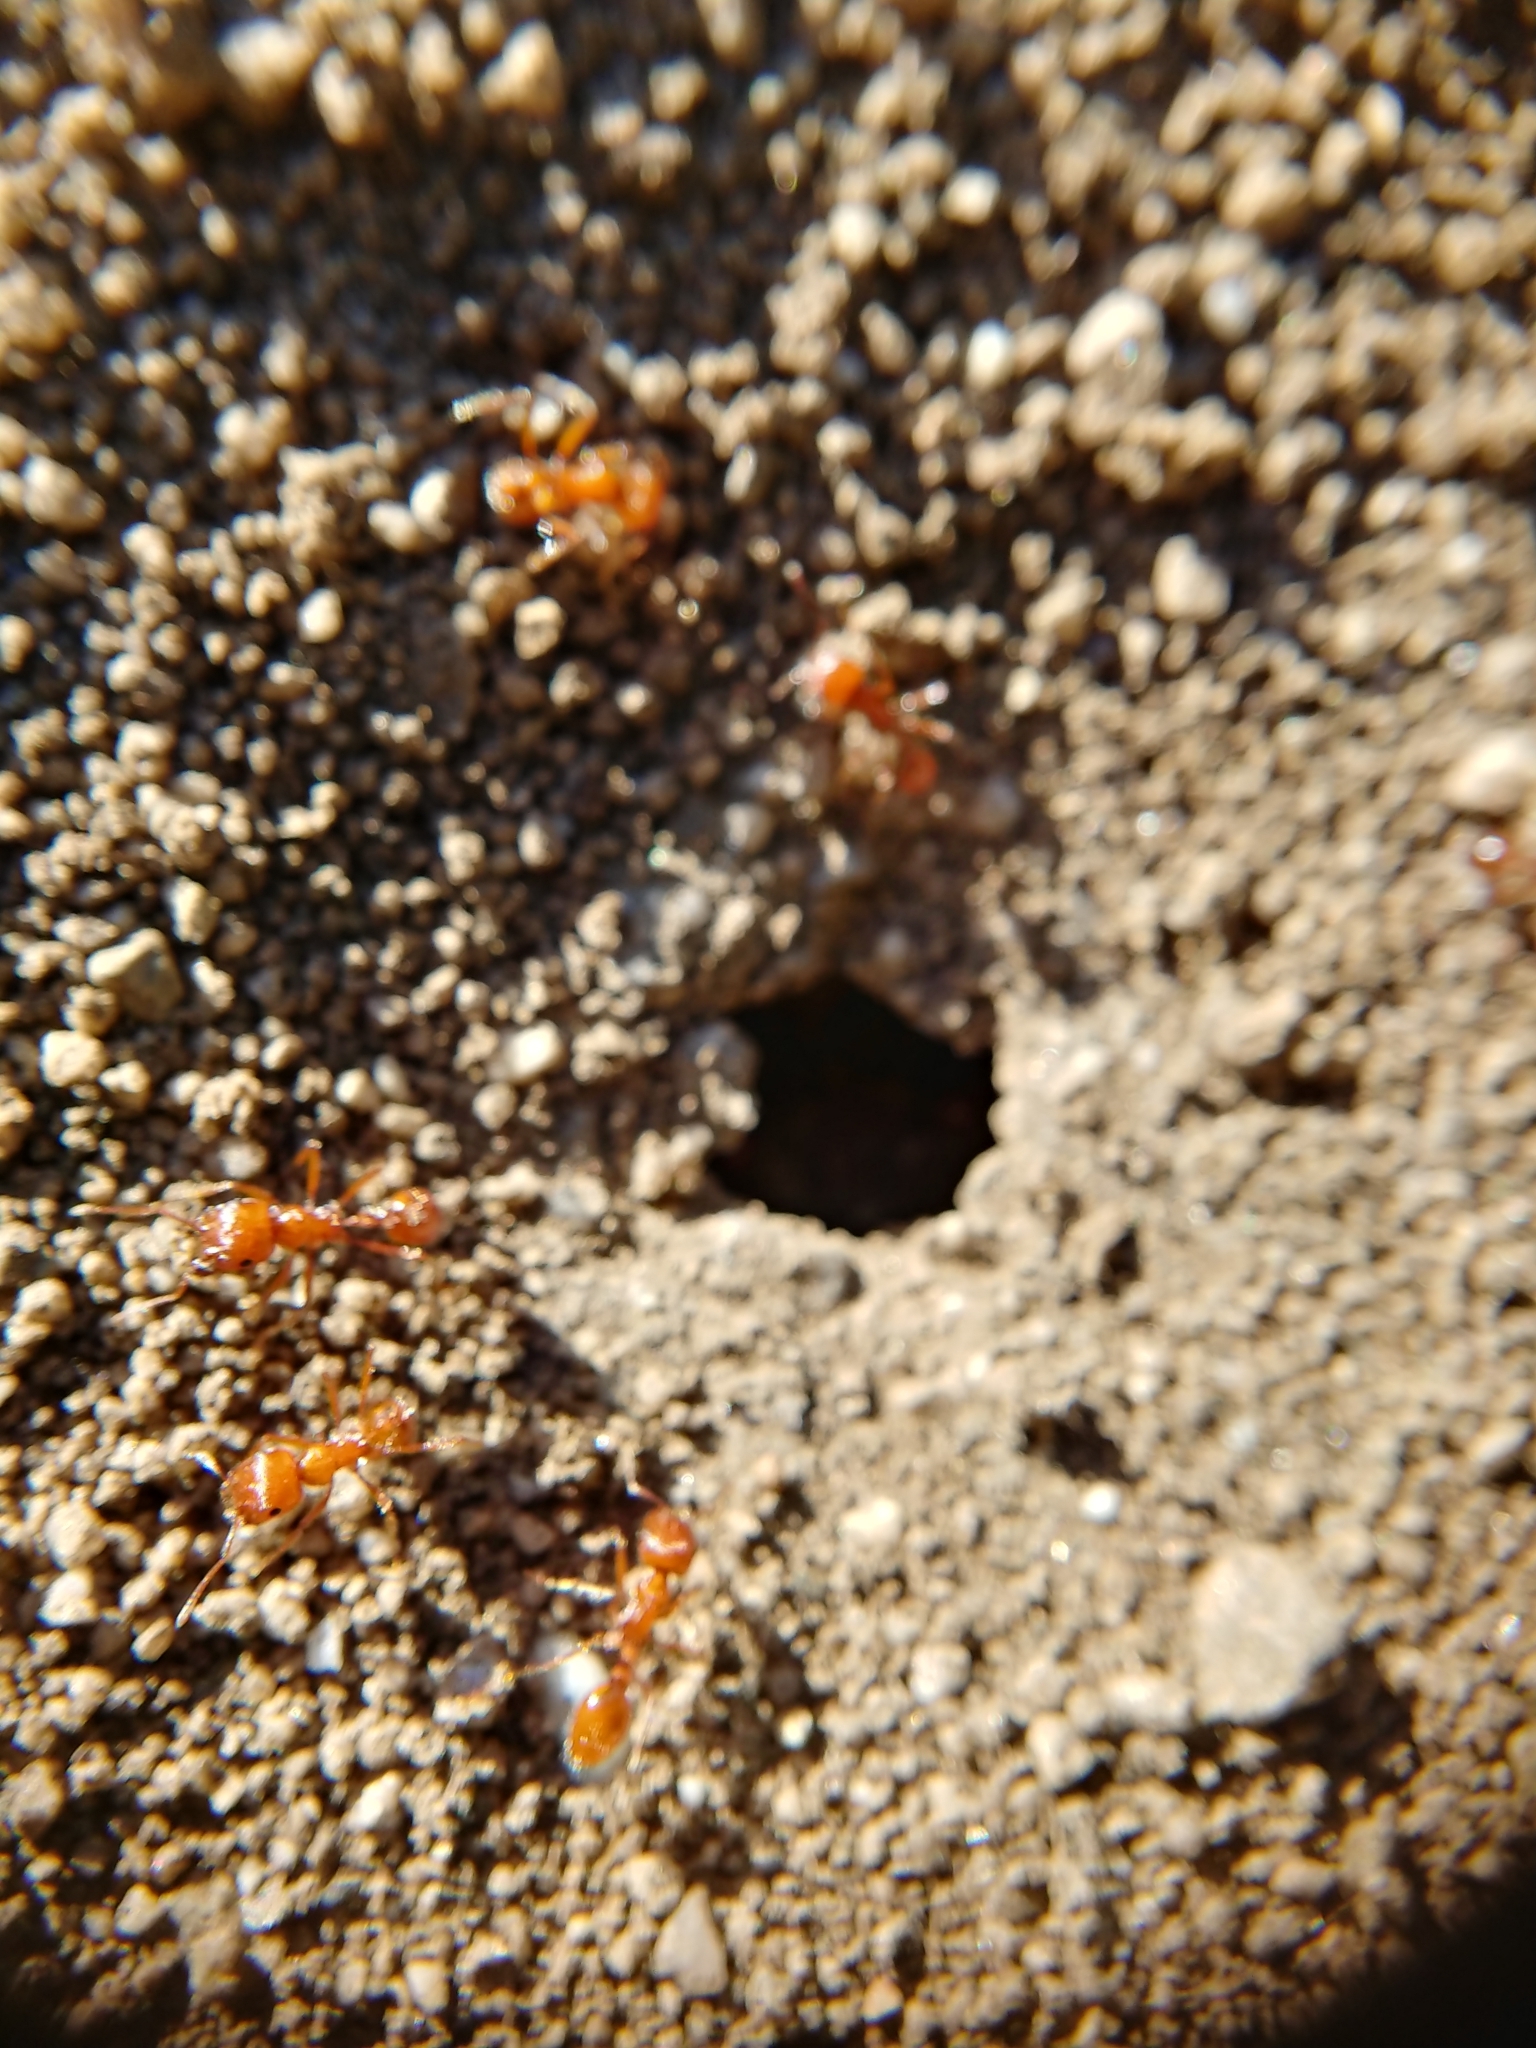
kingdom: Animalia
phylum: Arthropoda
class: Insecta
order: Hymenoptera
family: Formicidae
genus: Pogonomyrmex
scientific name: Pogonomyrmex californicus
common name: California harvester ant
